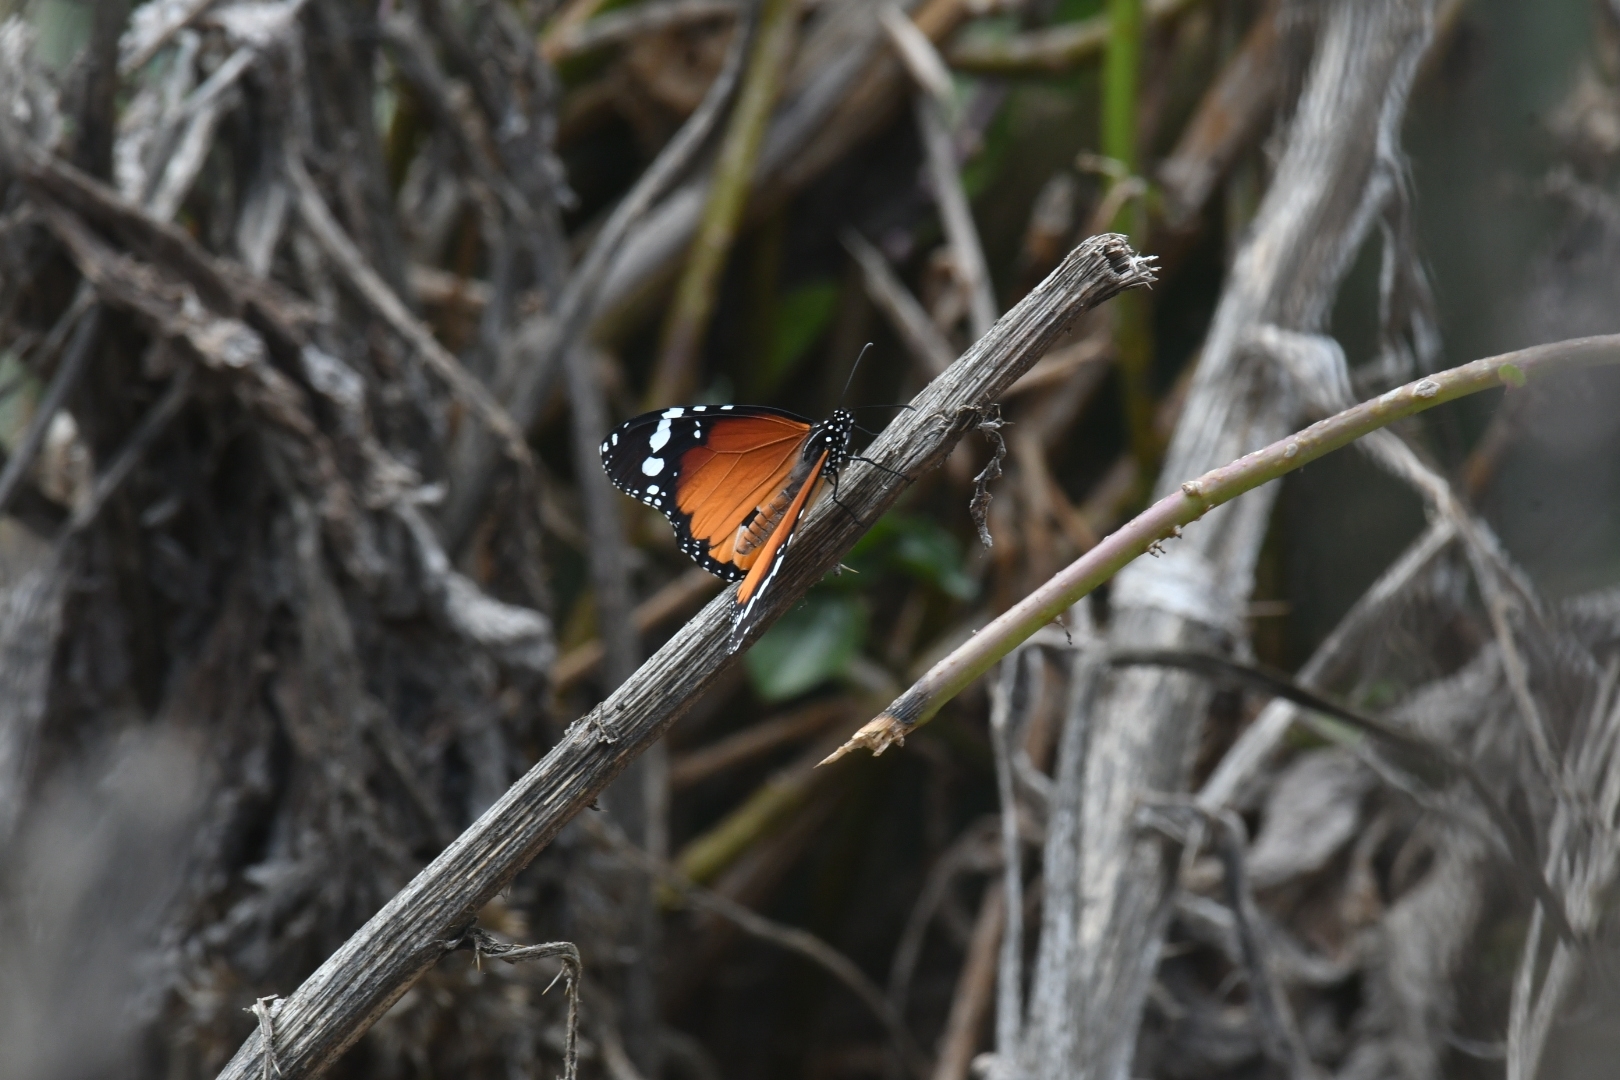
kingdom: Animalia
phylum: Arthropoda
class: Insecta
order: Lepidoptera
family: Nymphalidae
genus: Danaus
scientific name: Danaus chrysippus
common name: Plain tiger
